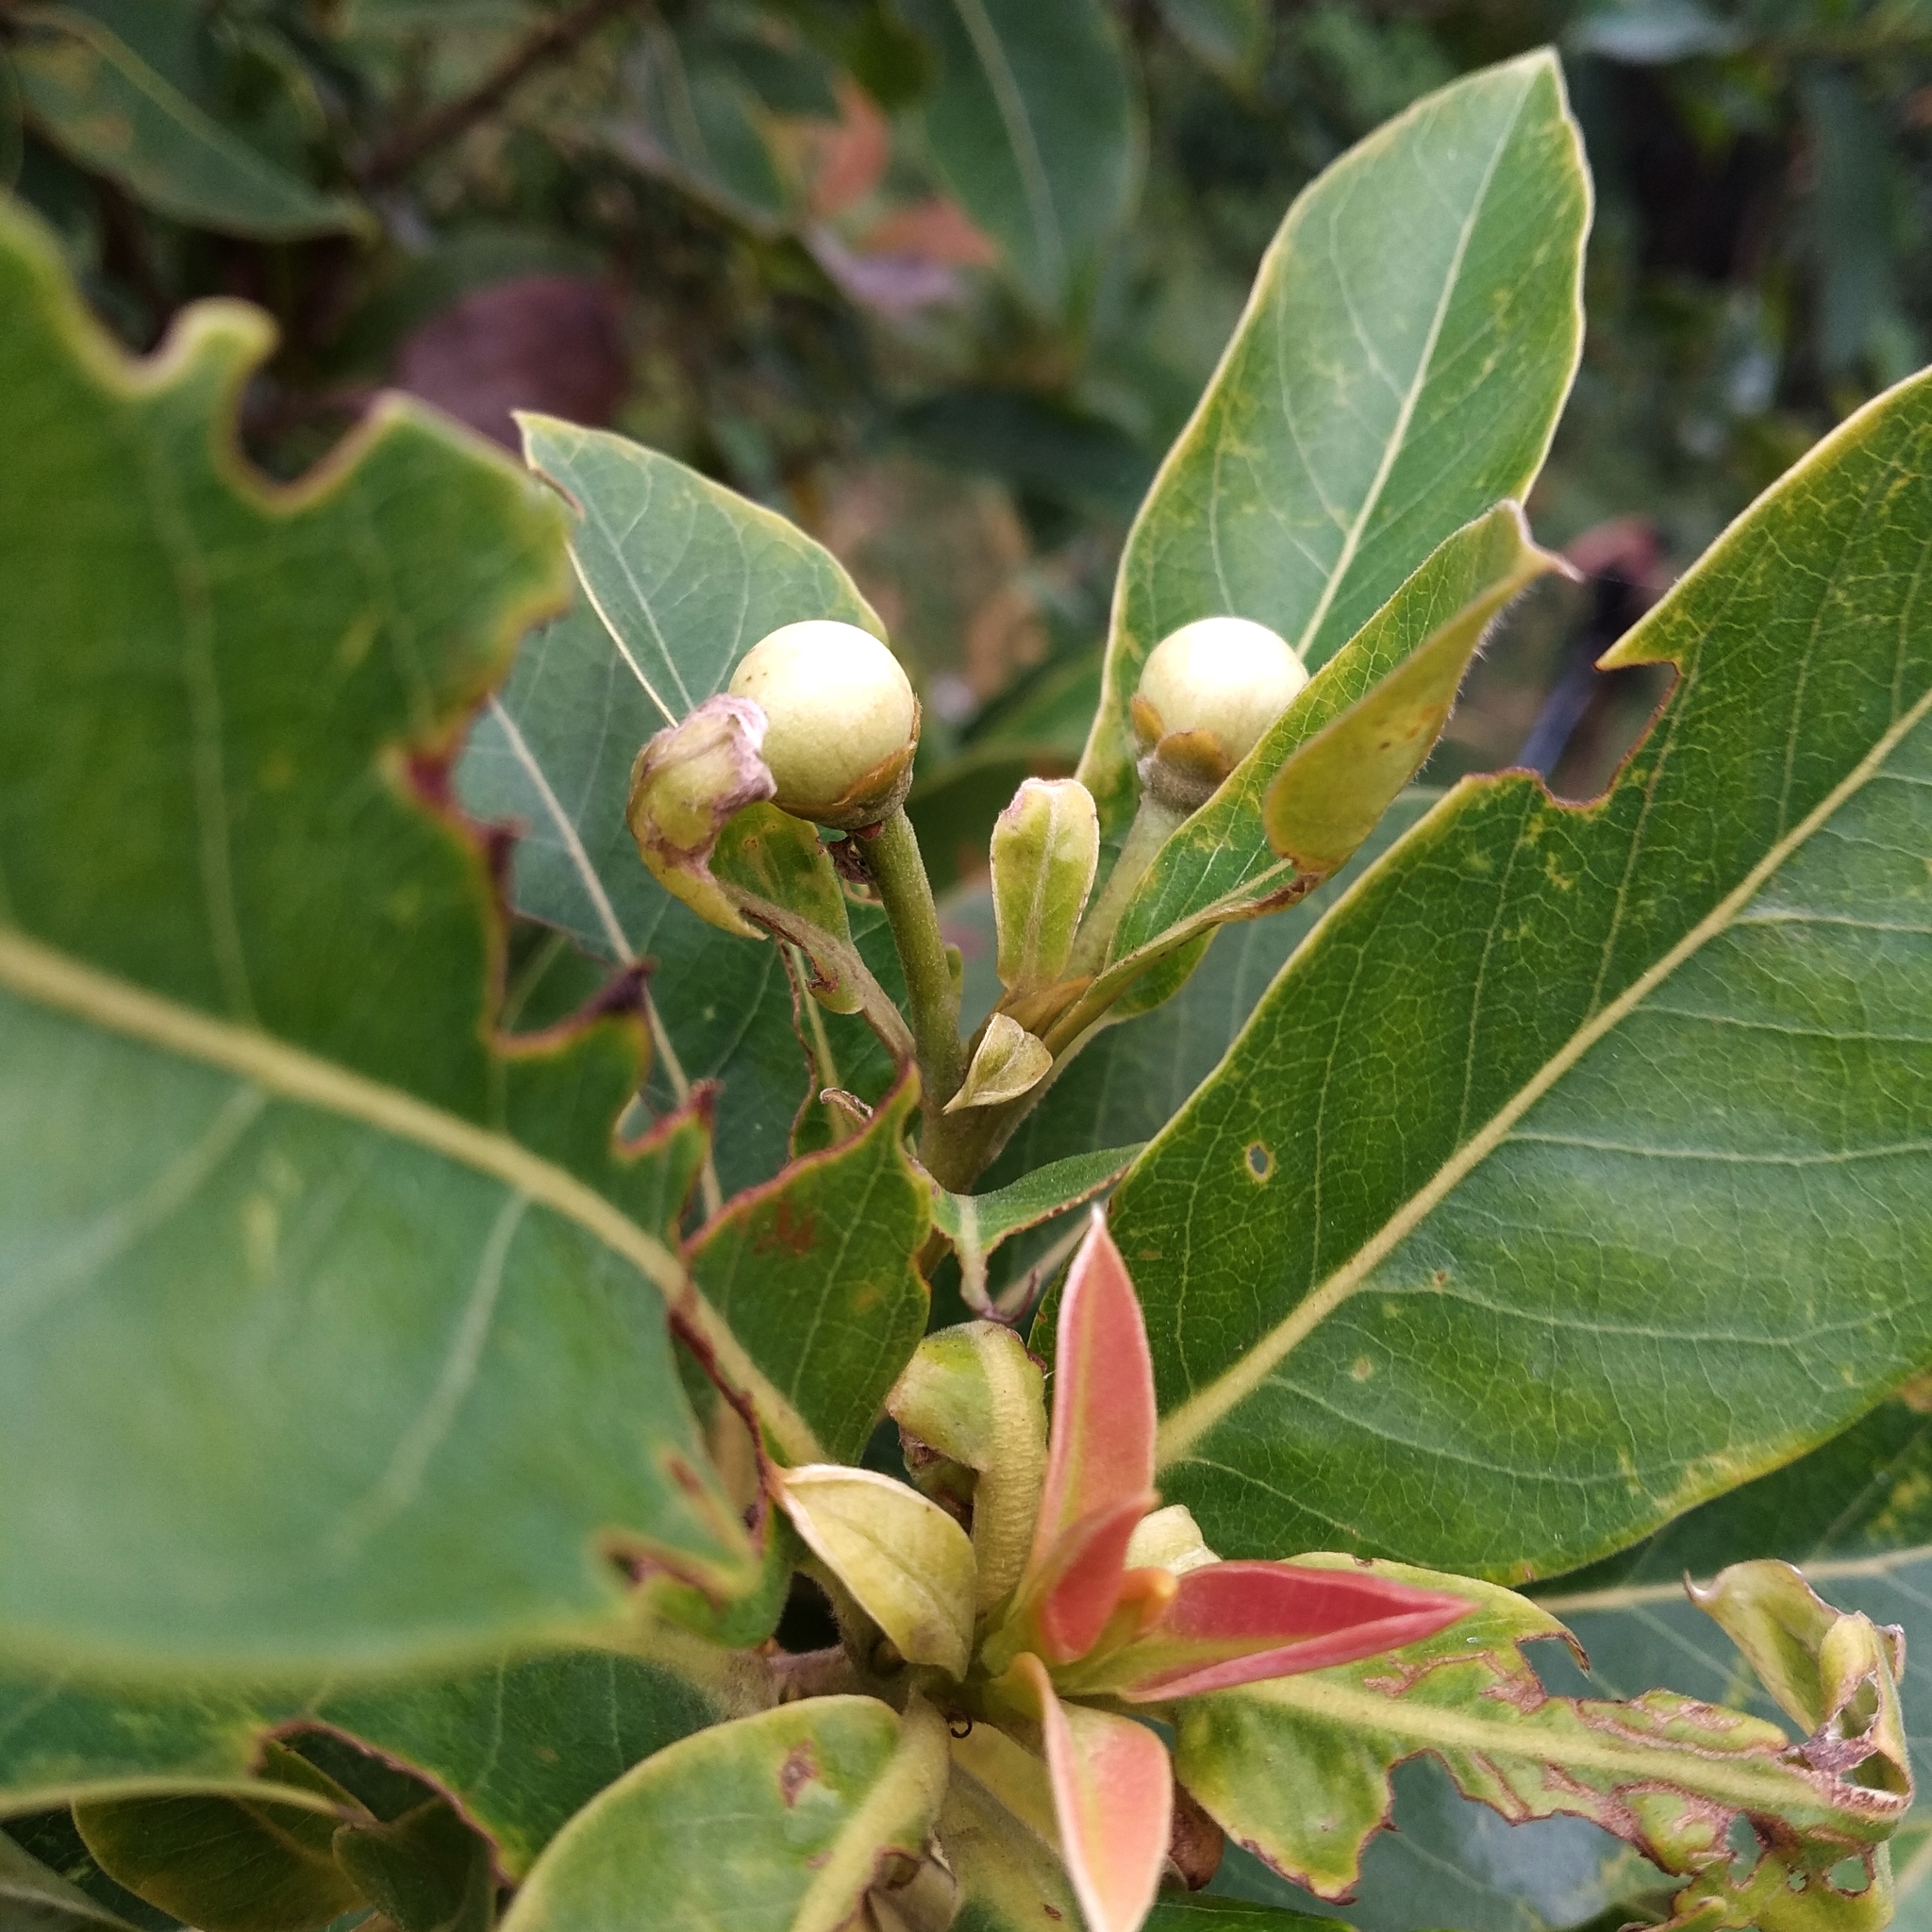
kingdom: Plantae
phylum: Tracheophyta
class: Magnoliopsida
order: Ericales
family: Theaceae
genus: Schima
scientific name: Schima wallichii
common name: Schima
